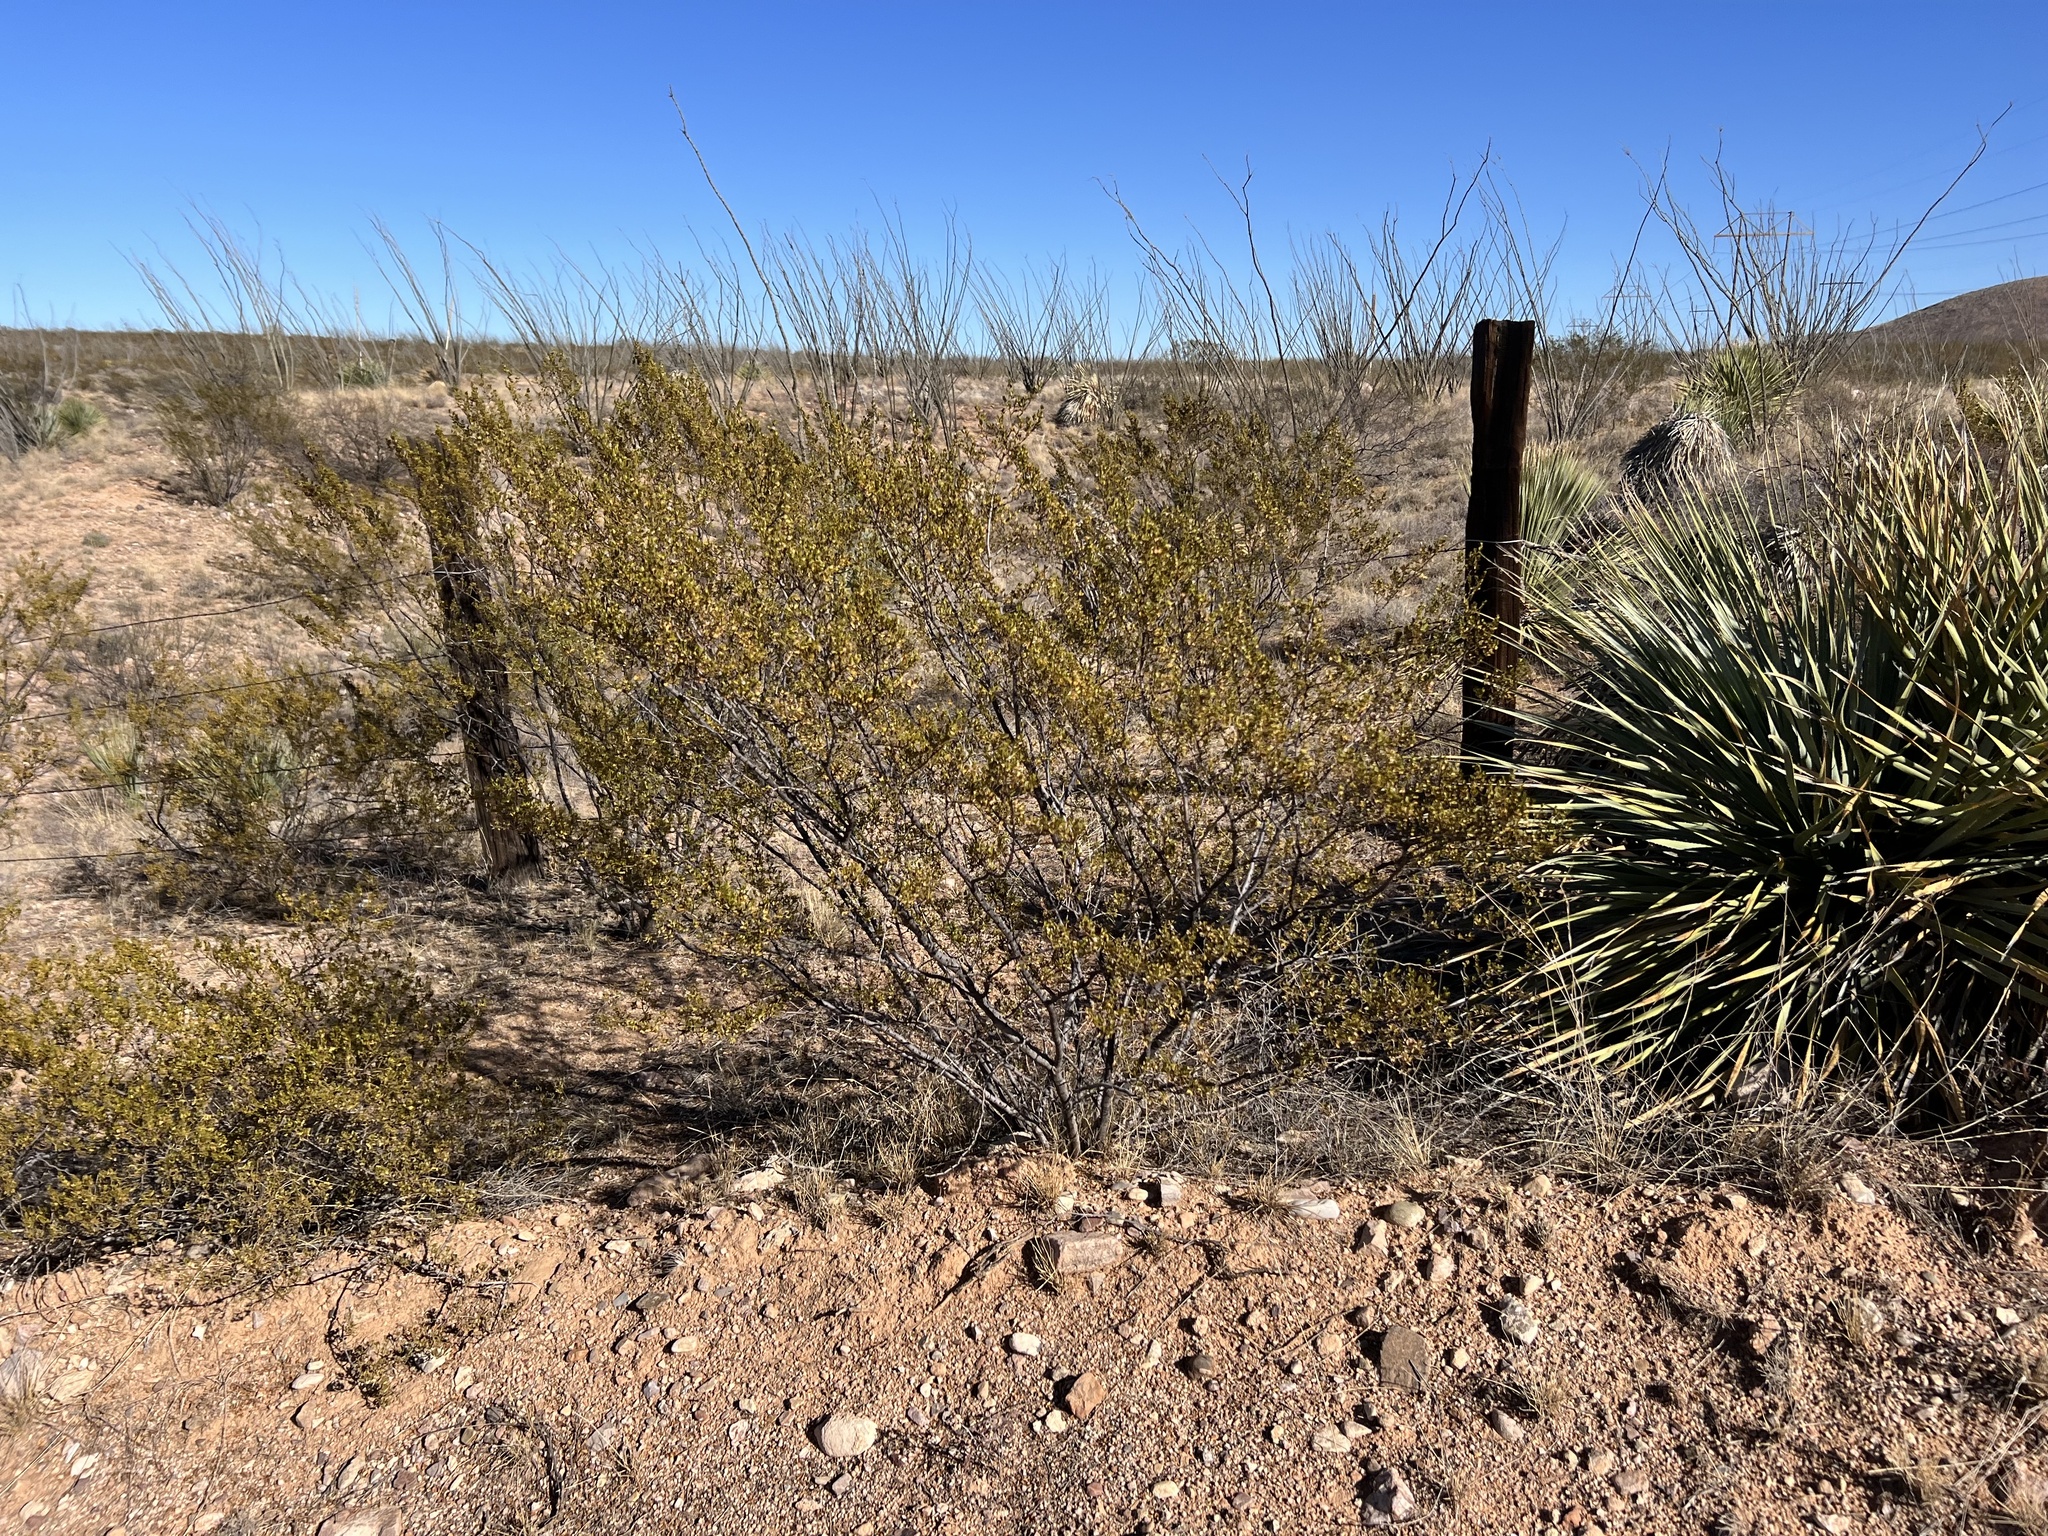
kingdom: Plantae
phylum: Tracheophyta
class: Magnoliopsida
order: Zygophyllales
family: Zygophyllaceae
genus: Larrea
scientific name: Larrea tridentata
